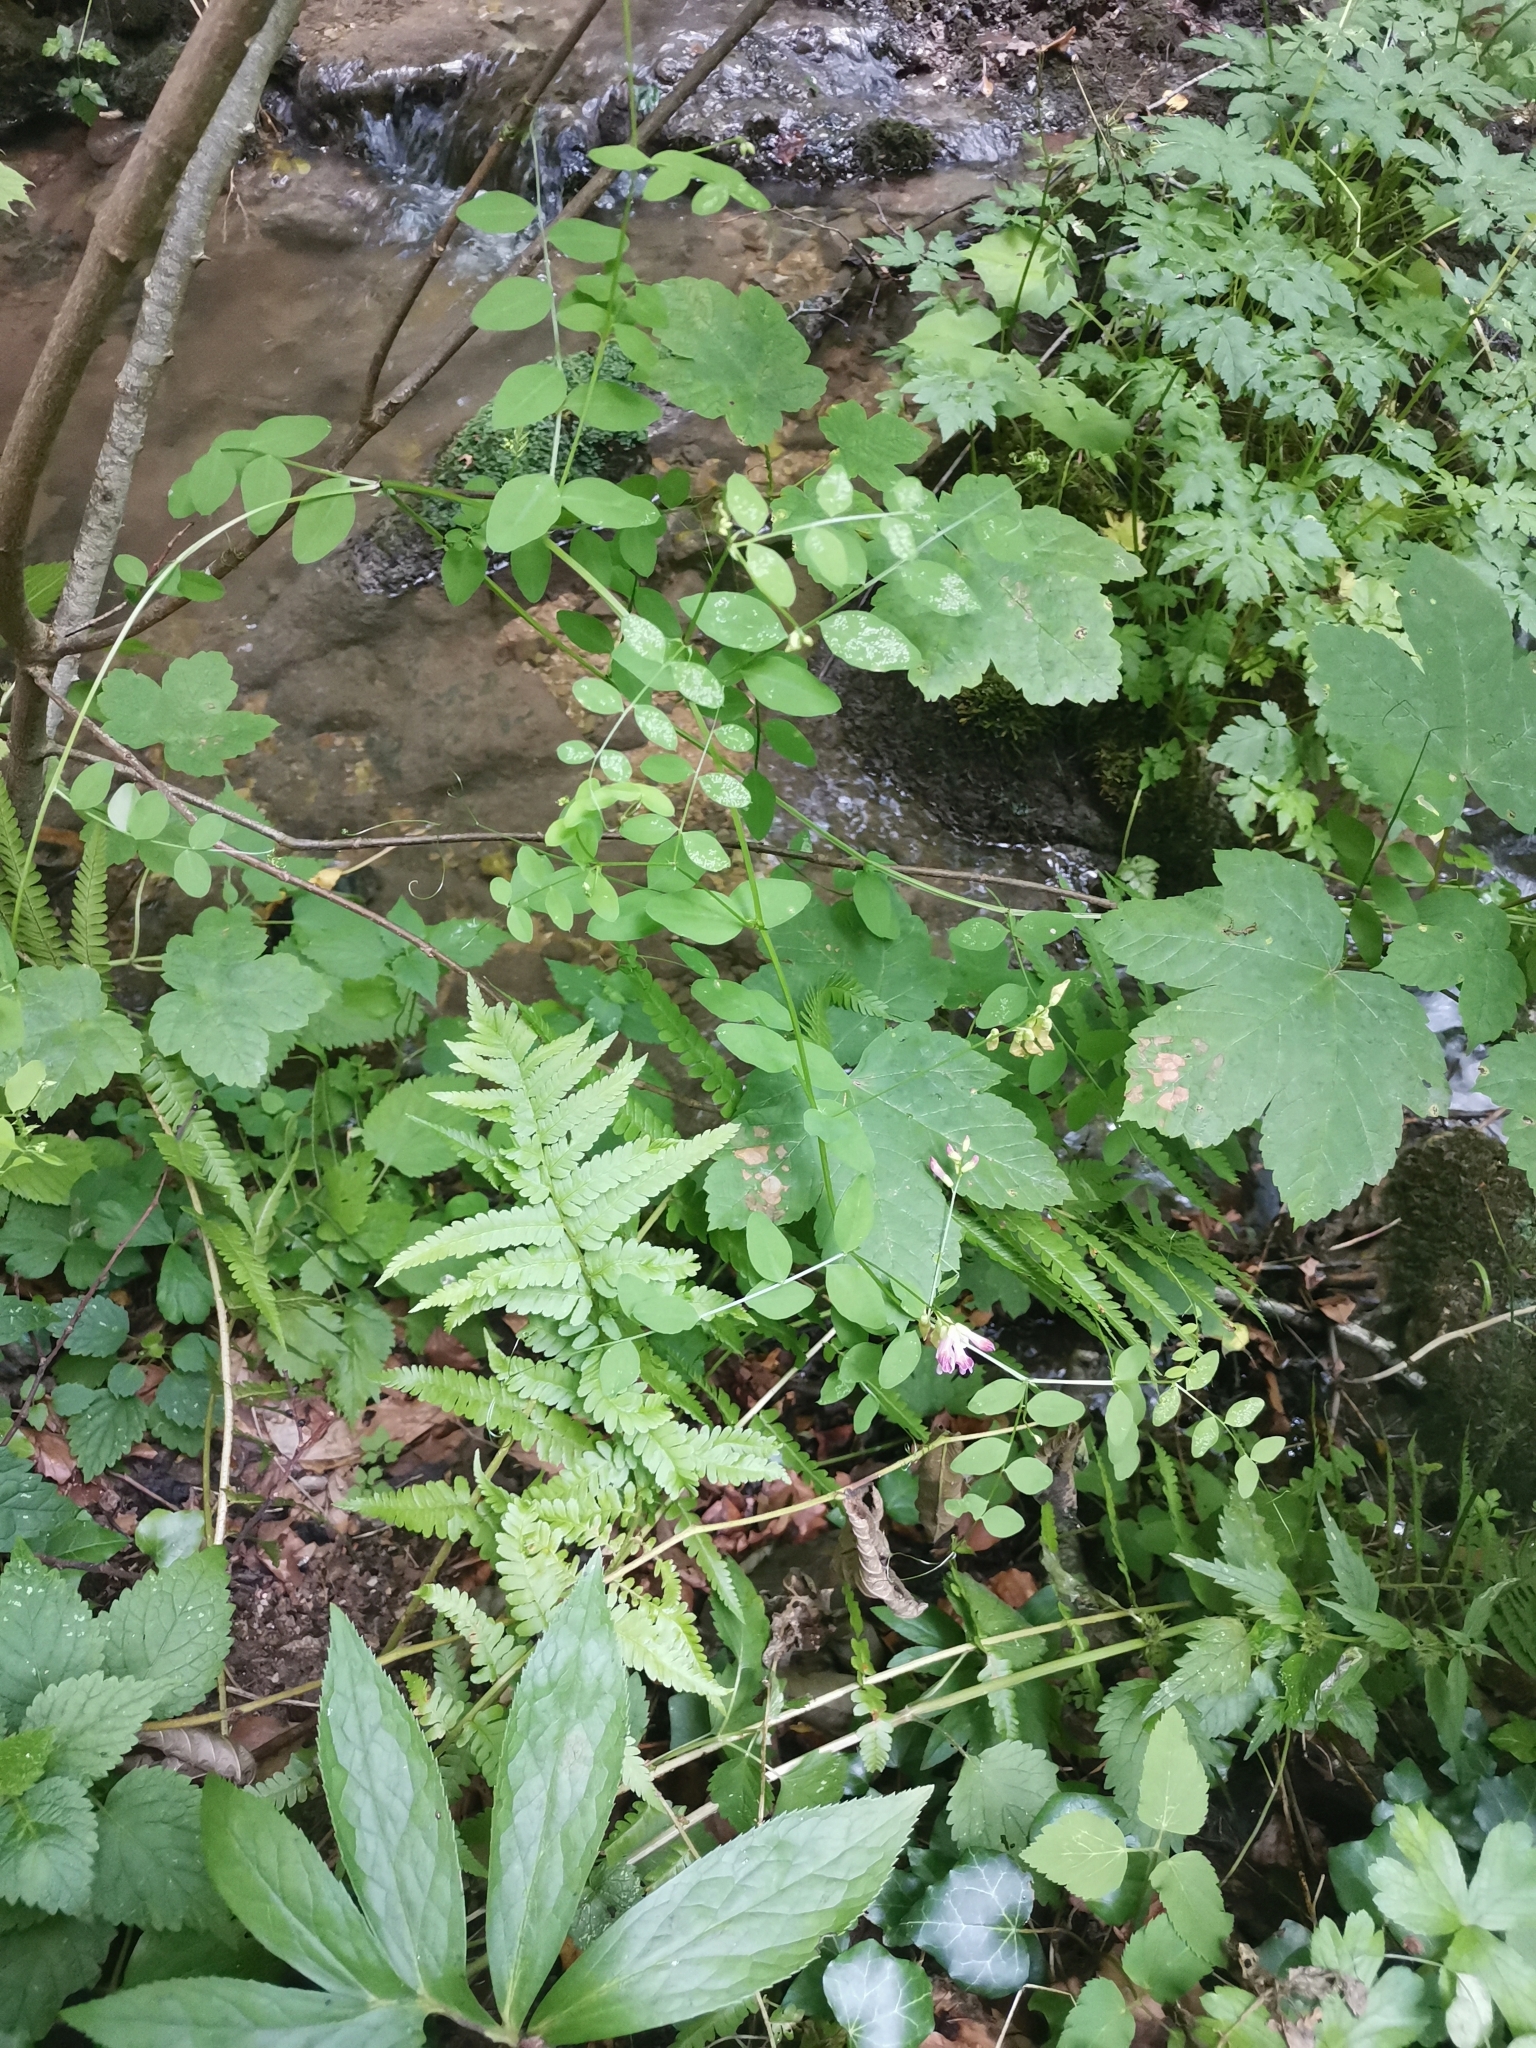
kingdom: Plantae
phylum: Tracheophyta
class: Magnoliopsida
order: Fabales
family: Fabaceae
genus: Vicia
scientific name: Vicia dumetorum
